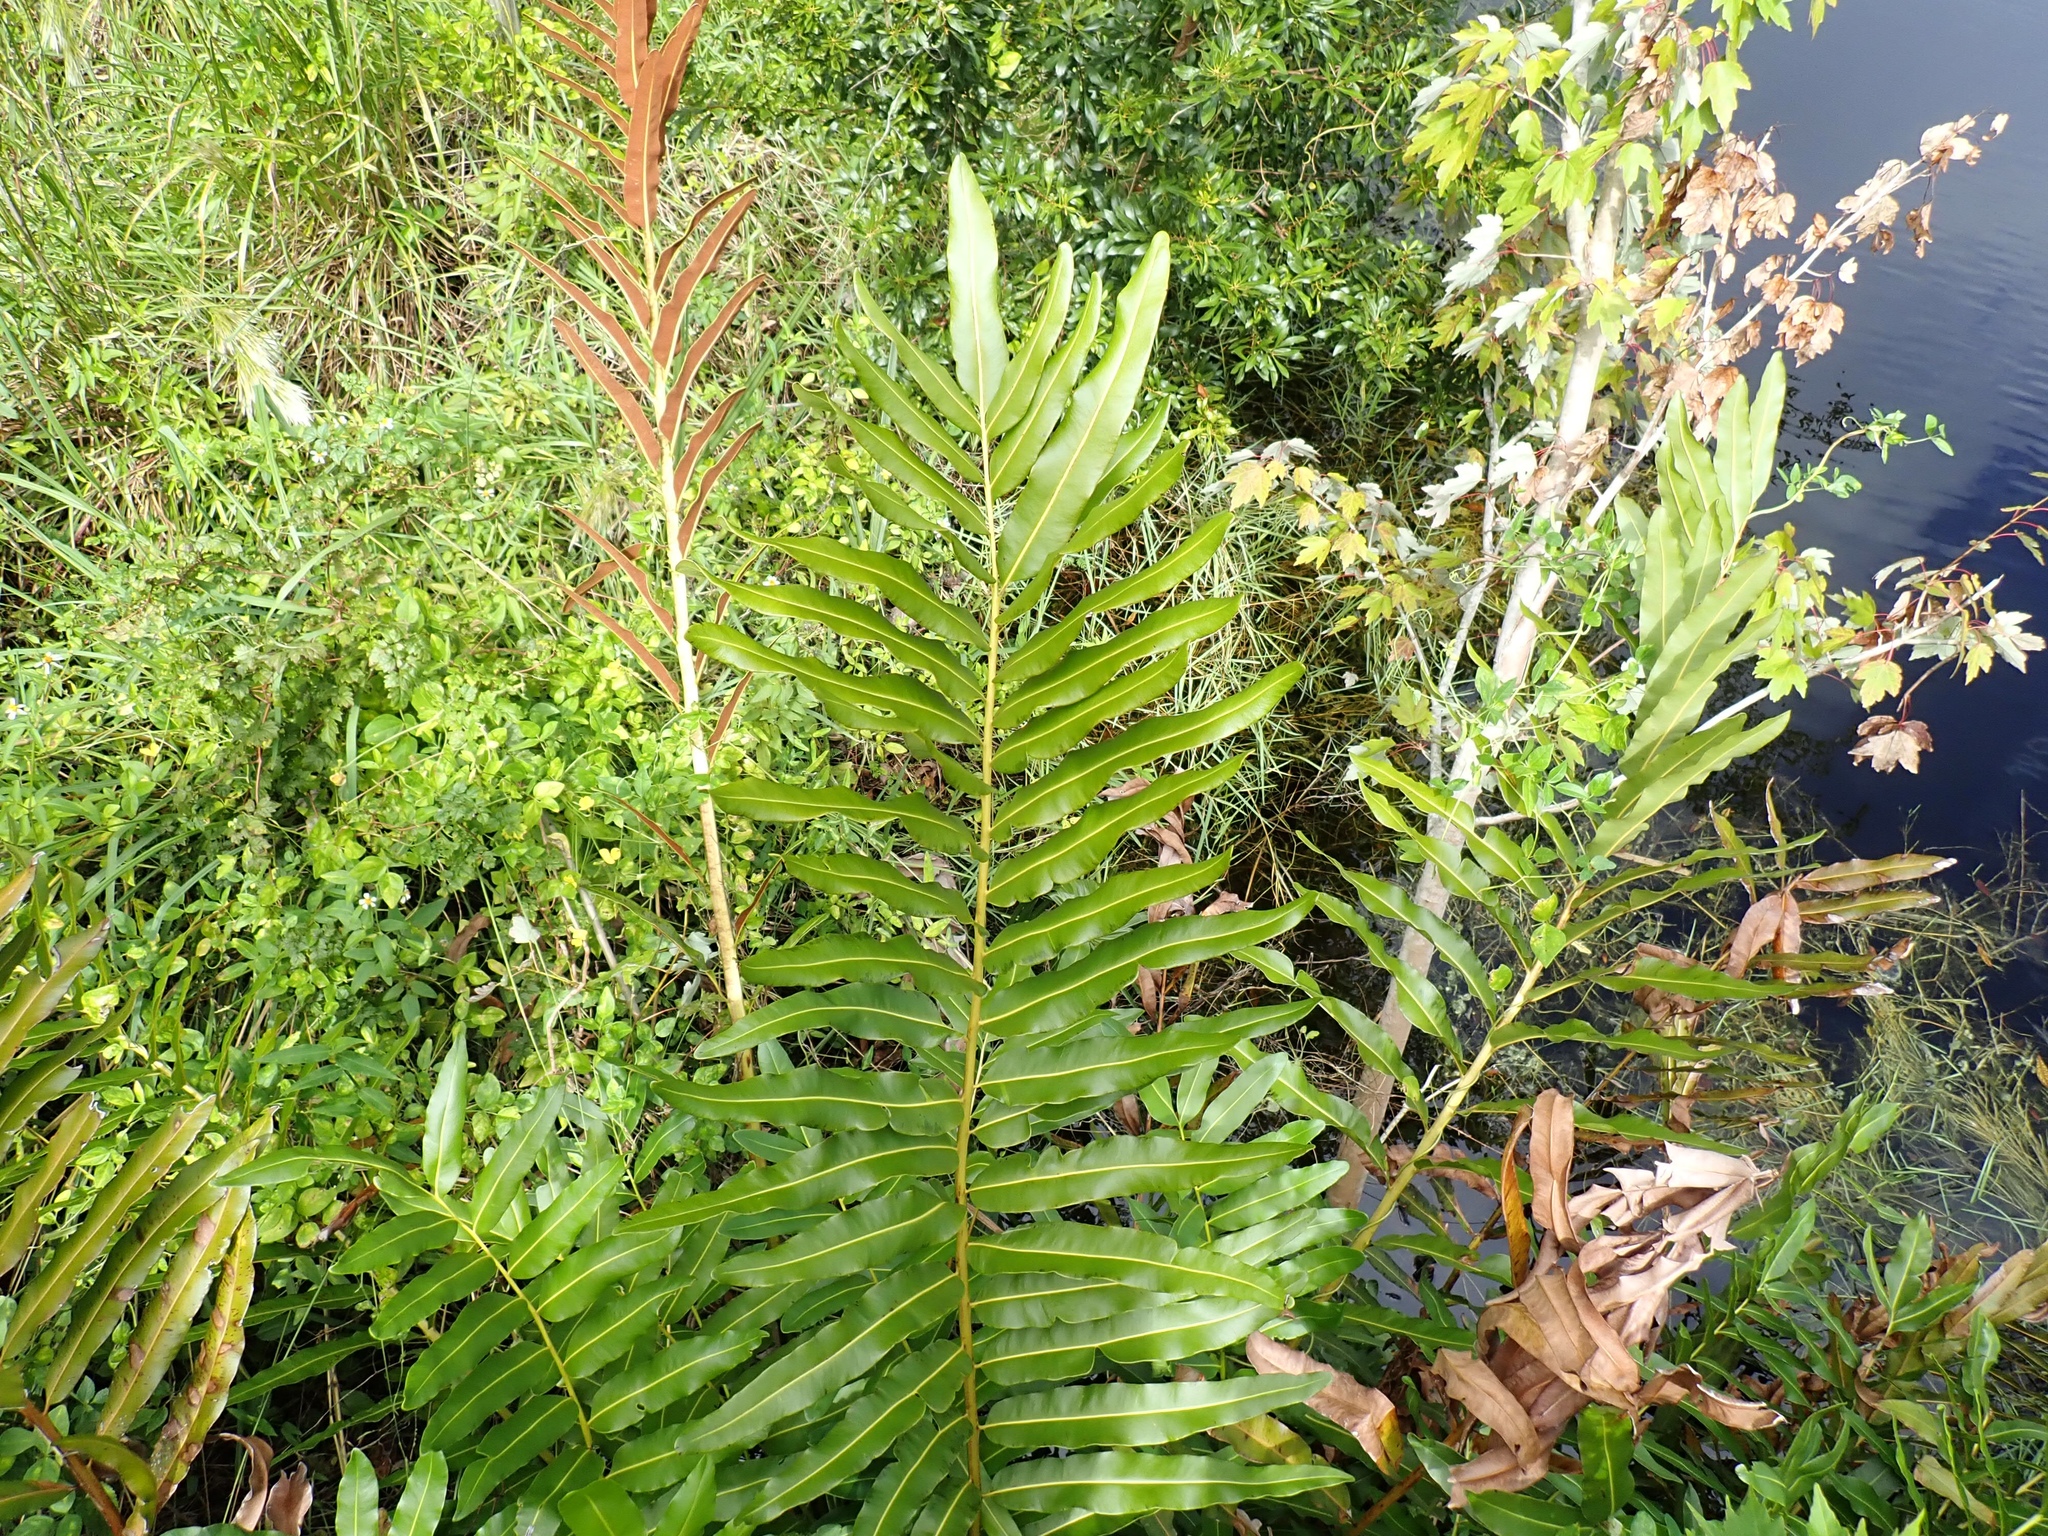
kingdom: Plantae
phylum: Tracheophyta
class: Polypodiopsida
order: Polypodiales
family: Pteridaceae
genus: Acrostichum
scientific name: Acrostichum danaeifolium
